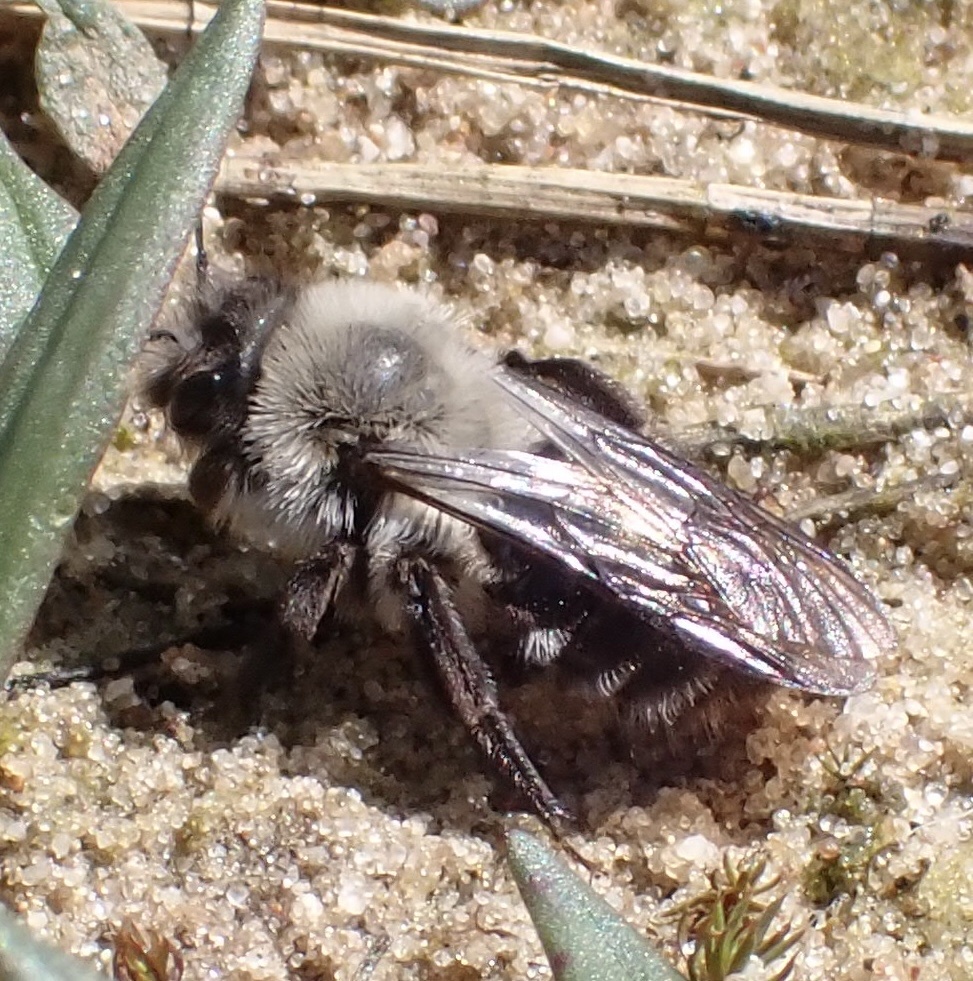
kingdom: Animalia
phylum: Arthropoda
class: Insecta
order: Hymenoptera
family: Andrenidae
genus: Andrena
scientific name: Andrena vaga
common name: Grey-backed mining bee
